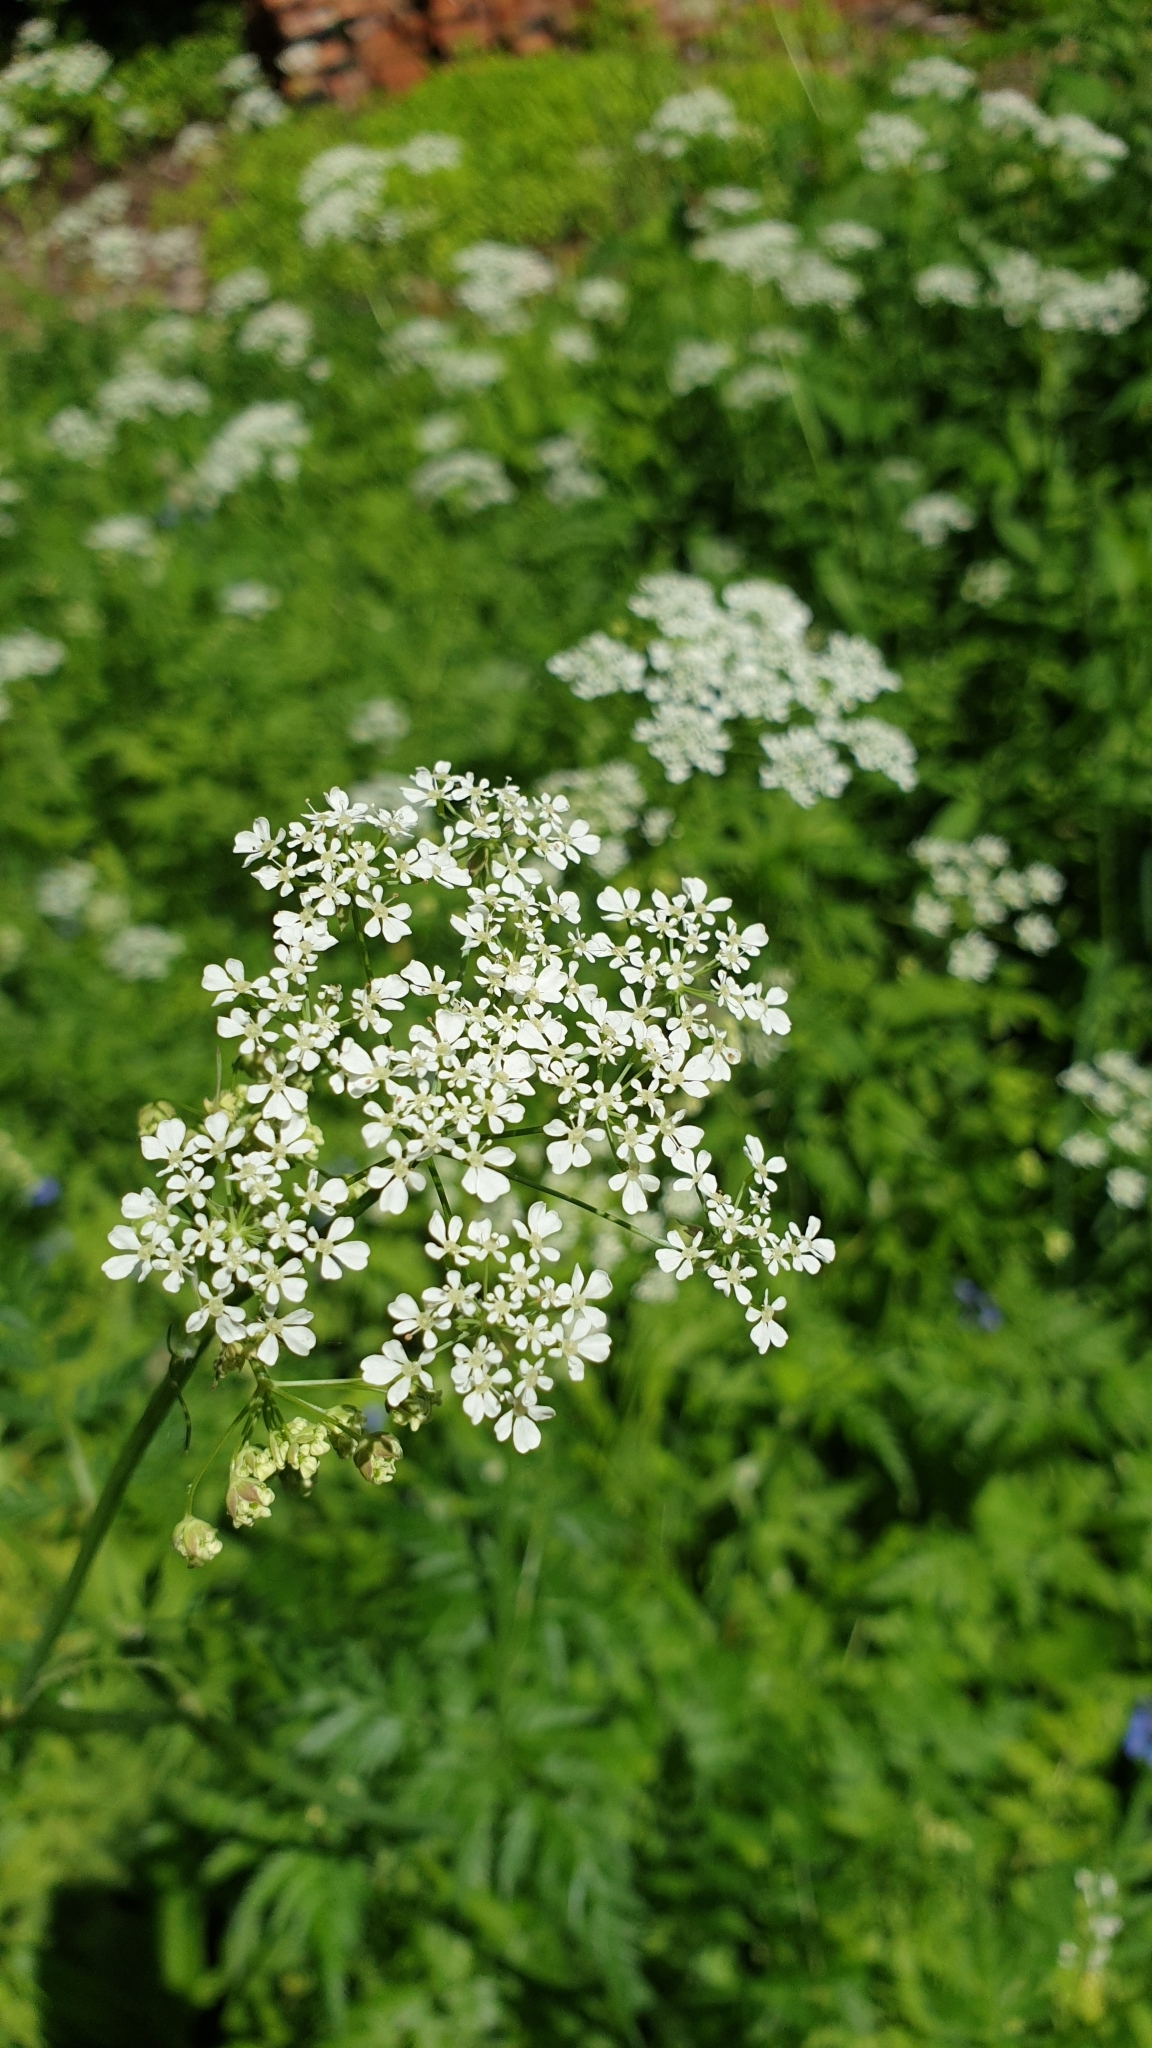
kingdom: Plantae
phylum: Tracheophyta
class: Magnoliopsida
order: Apiales
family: Apiaceae
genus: Anthriscus
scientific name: Anthriscus sylvestris
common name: Cow parsley
